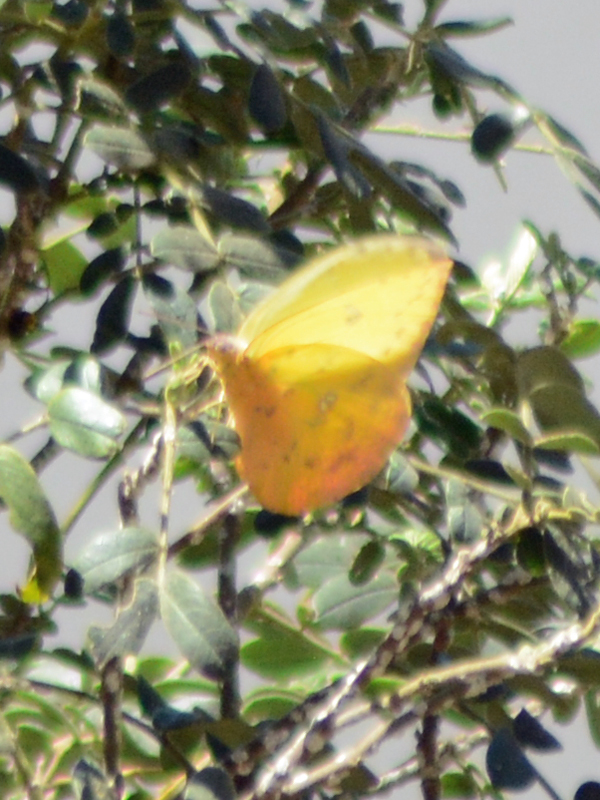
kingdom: Animalia
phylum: Arthropoda
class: Insecta
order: Lepidoptera
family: Pieridae
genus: Phoebis
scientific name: Phoebis philea
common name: Orange-barred giant sulphur
